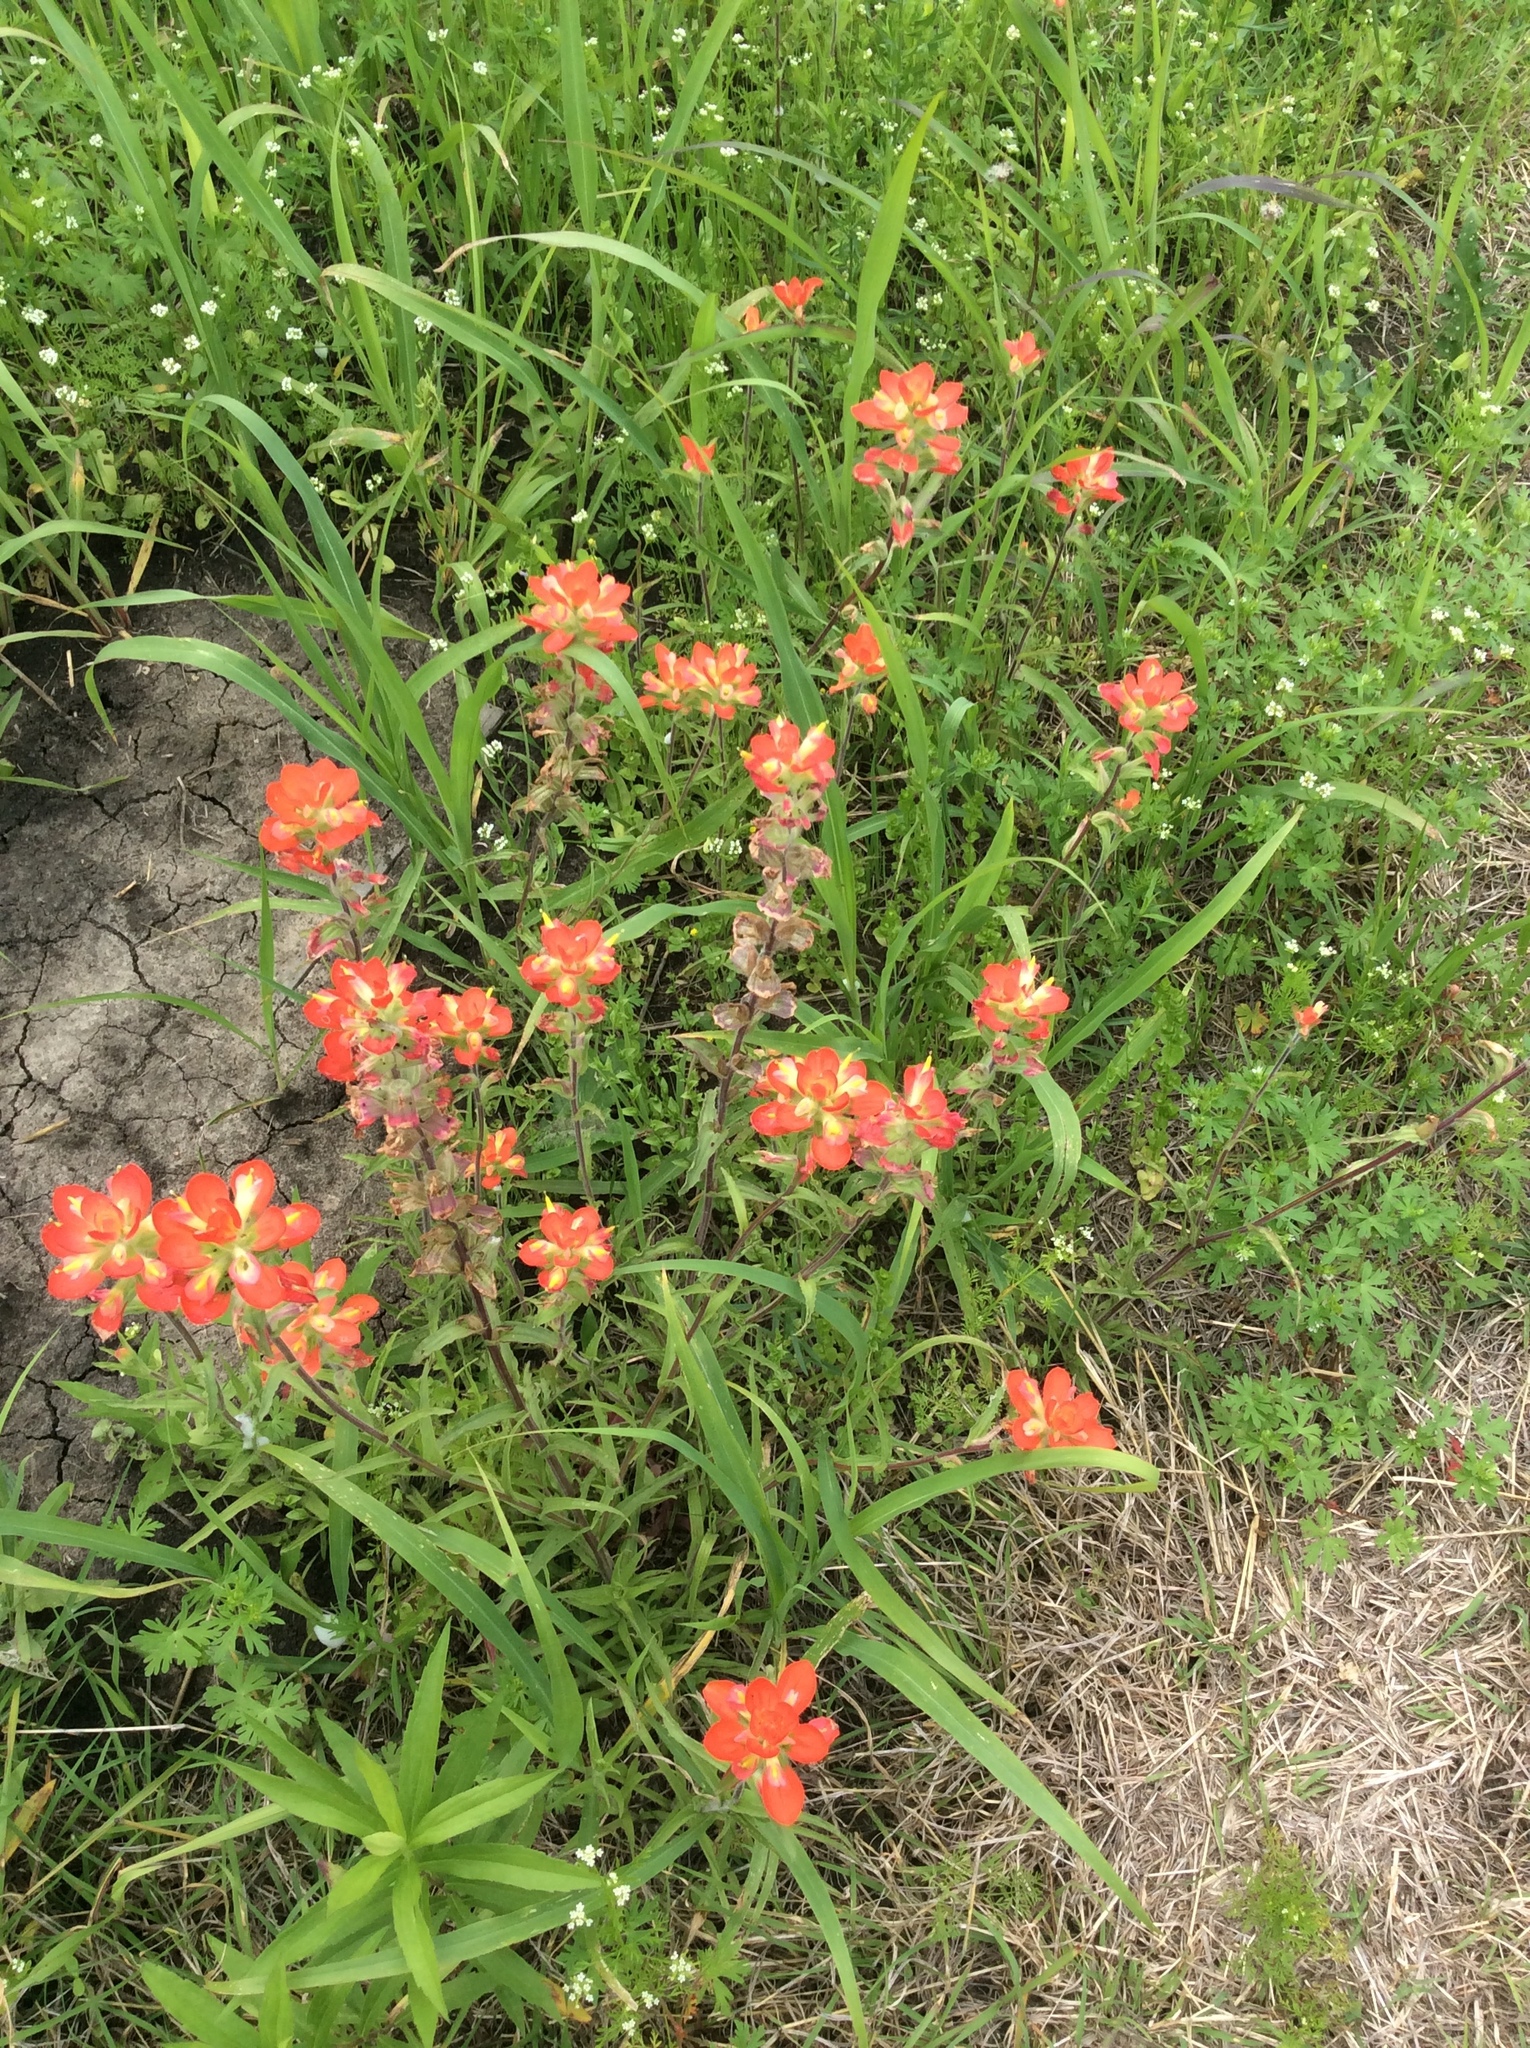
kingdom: Plantae
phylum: Tracheophyta
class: Magnoliopsida
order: Lamiales
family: Orobanchaceae
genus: Castilleja
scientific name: Castilleja indivisa
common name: Texas paintbrush
